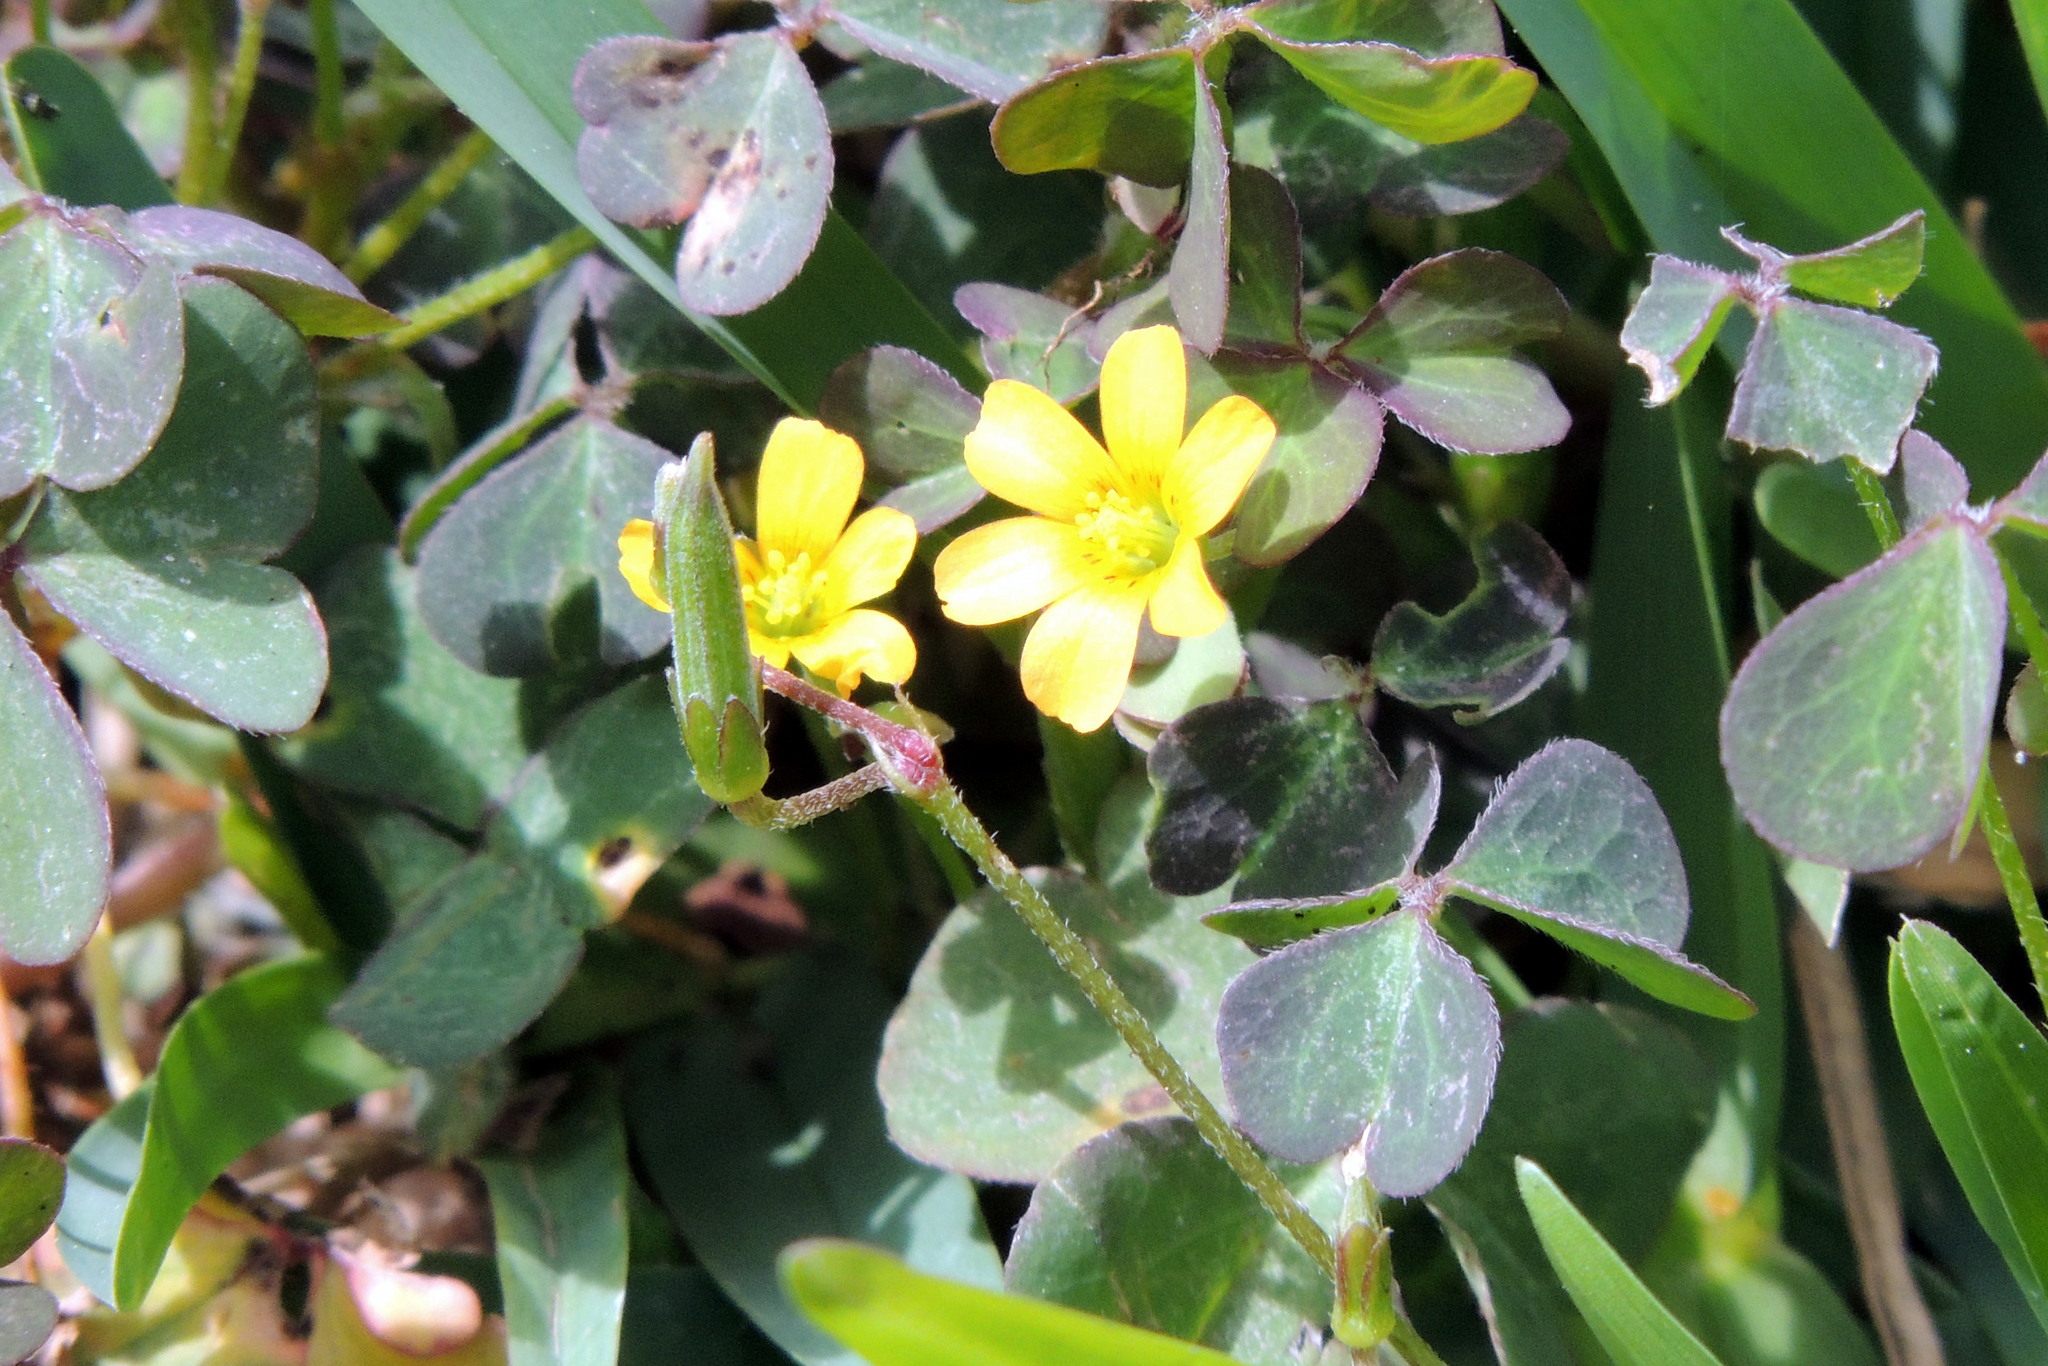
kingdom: Plantae
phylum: Tracheophyta
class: Magnoliopsida
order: Oxalidales
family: Oxalidaceae
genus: Oxalis
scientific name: Oxalis corniculata
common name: Procumbent yellow-sorrel
